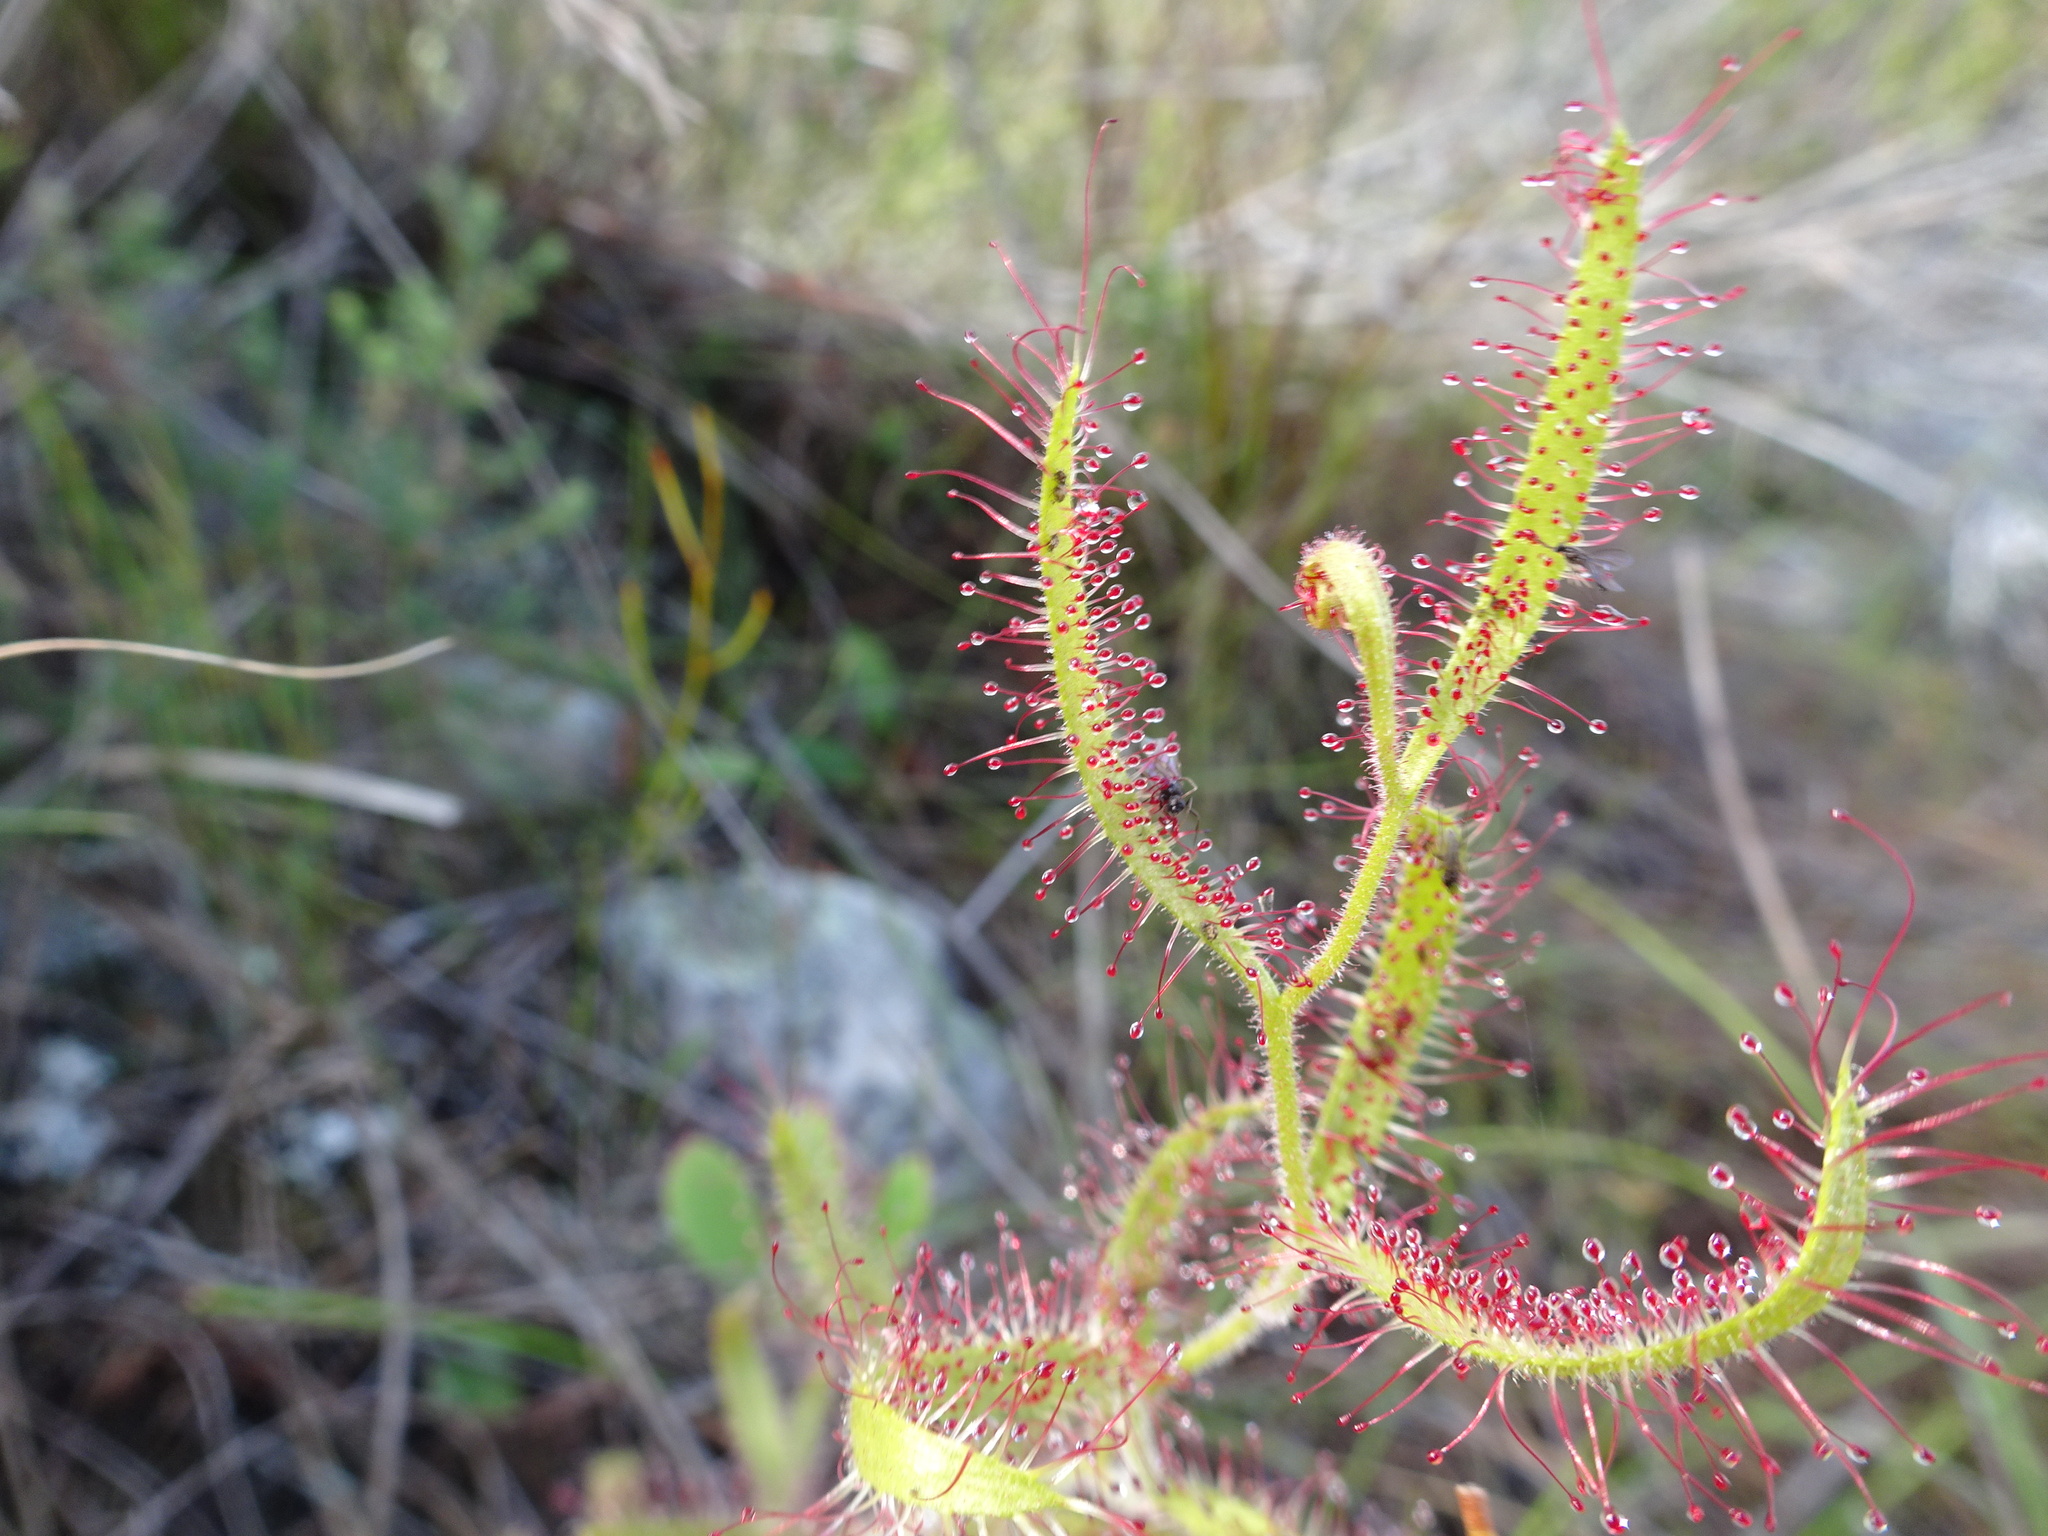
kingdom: Plantae
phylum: Tracheophyta
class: Magnoliopsida
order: Caryophyllales
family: Droseraceae
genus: Drosera
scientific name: Drosera cistiflora
